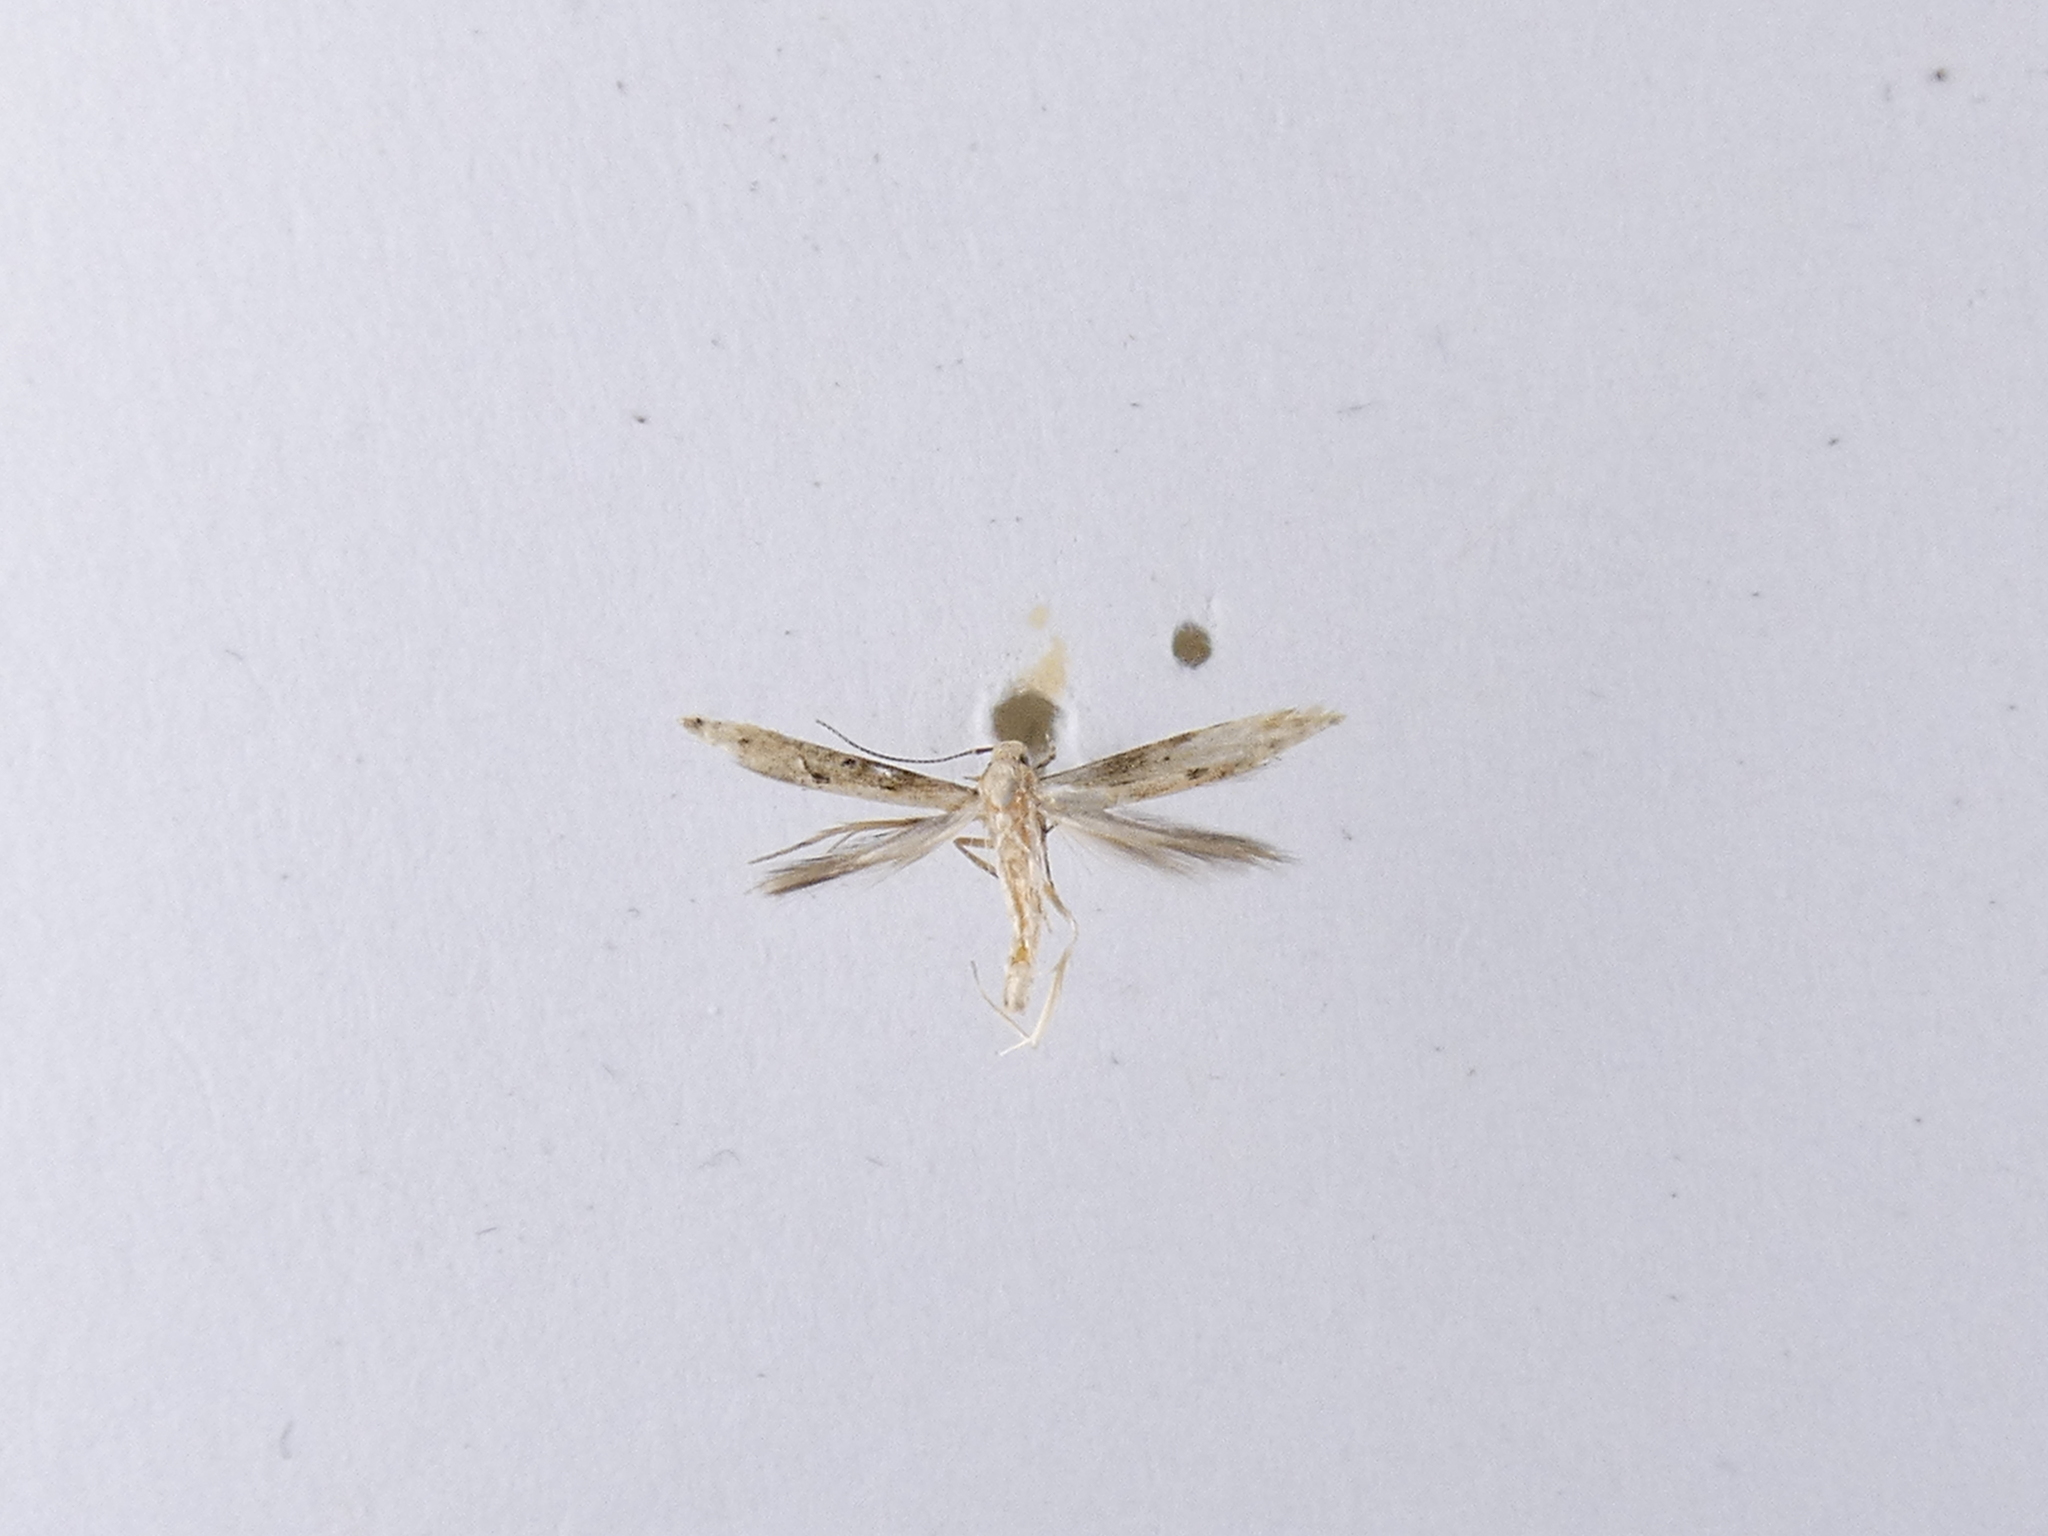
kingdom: Animalia
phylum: Arthropoda
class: Insecta
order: Lepidoptera
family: Elachistidae
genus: Microcolona
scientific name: Microcolona limodes
